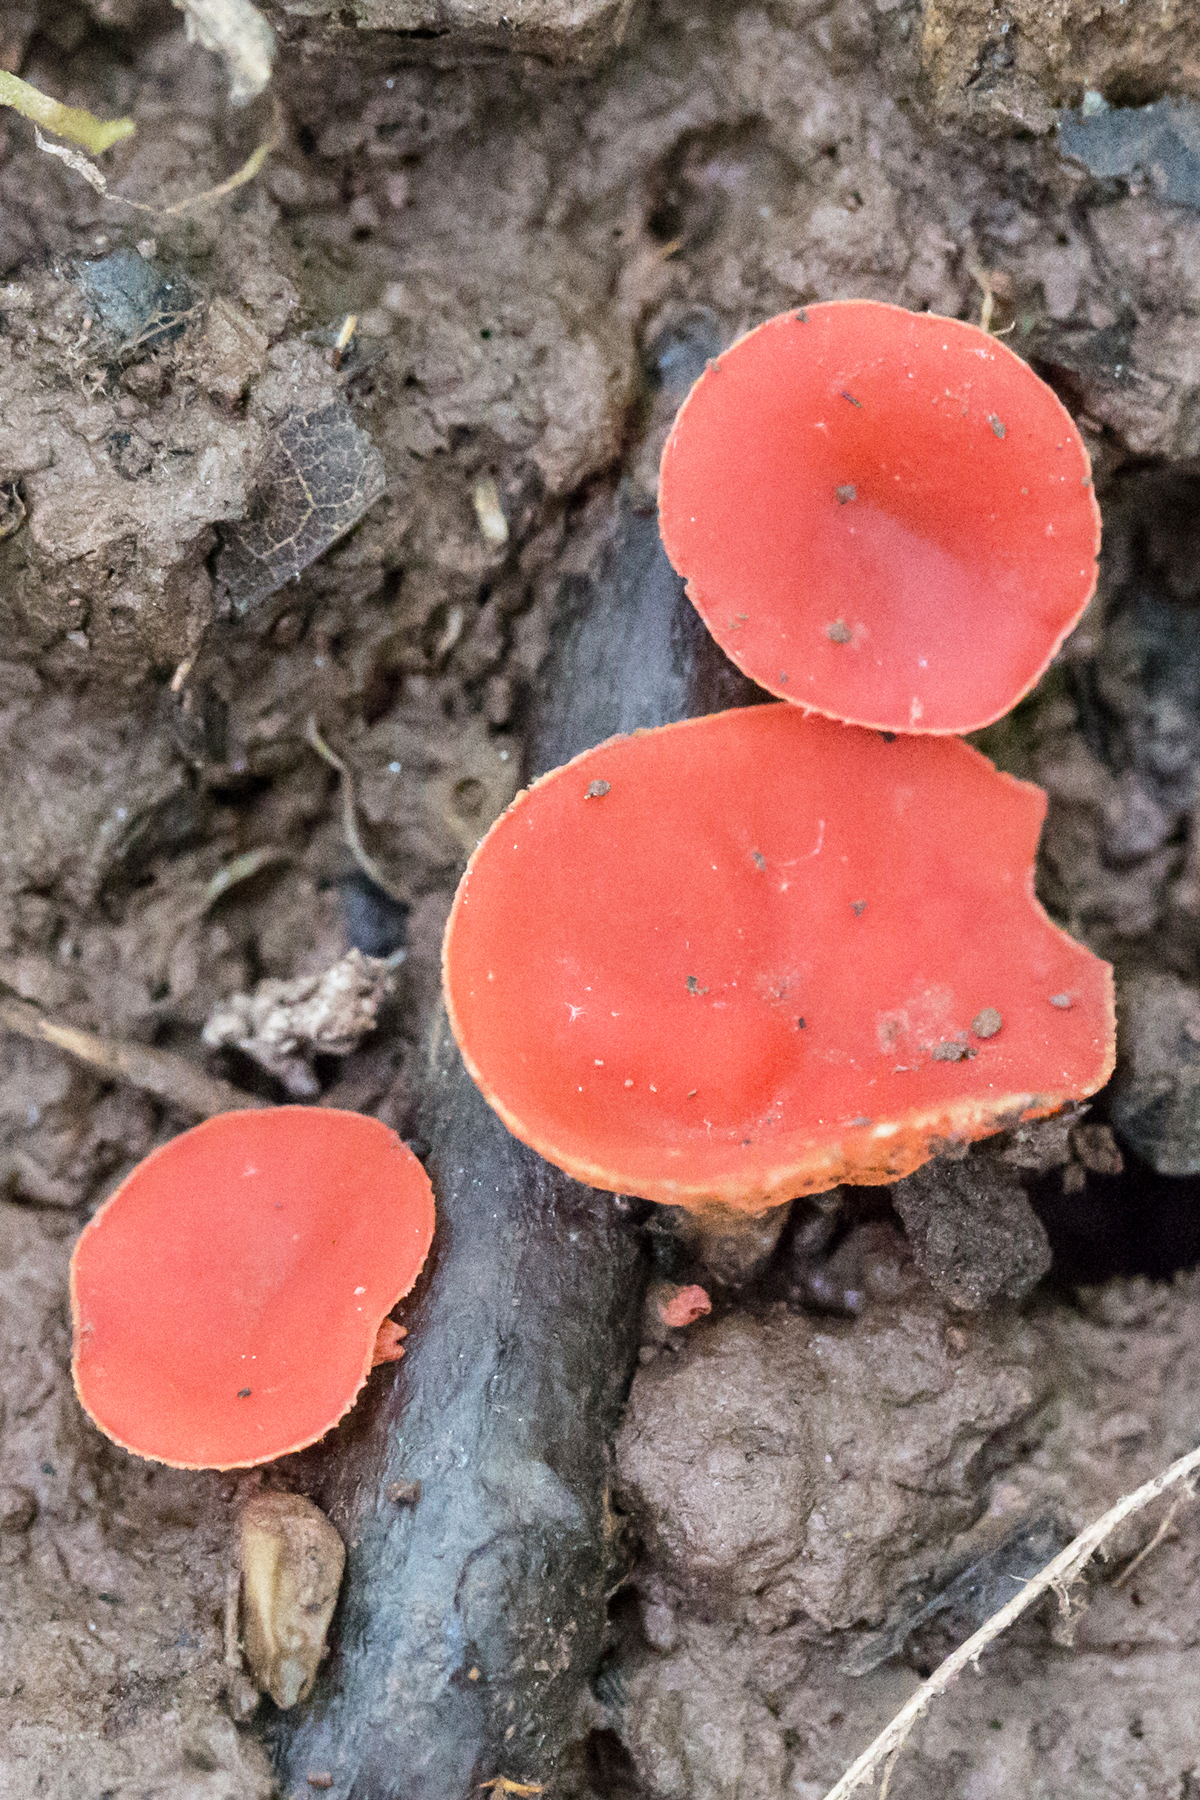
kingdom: Fungi
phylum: Ascomycota
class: Pezizomycetes
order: Pezizales
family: Sarcoscyphaceae
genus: Sarcoscypha
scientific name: Sarcoscypha occidentalis
